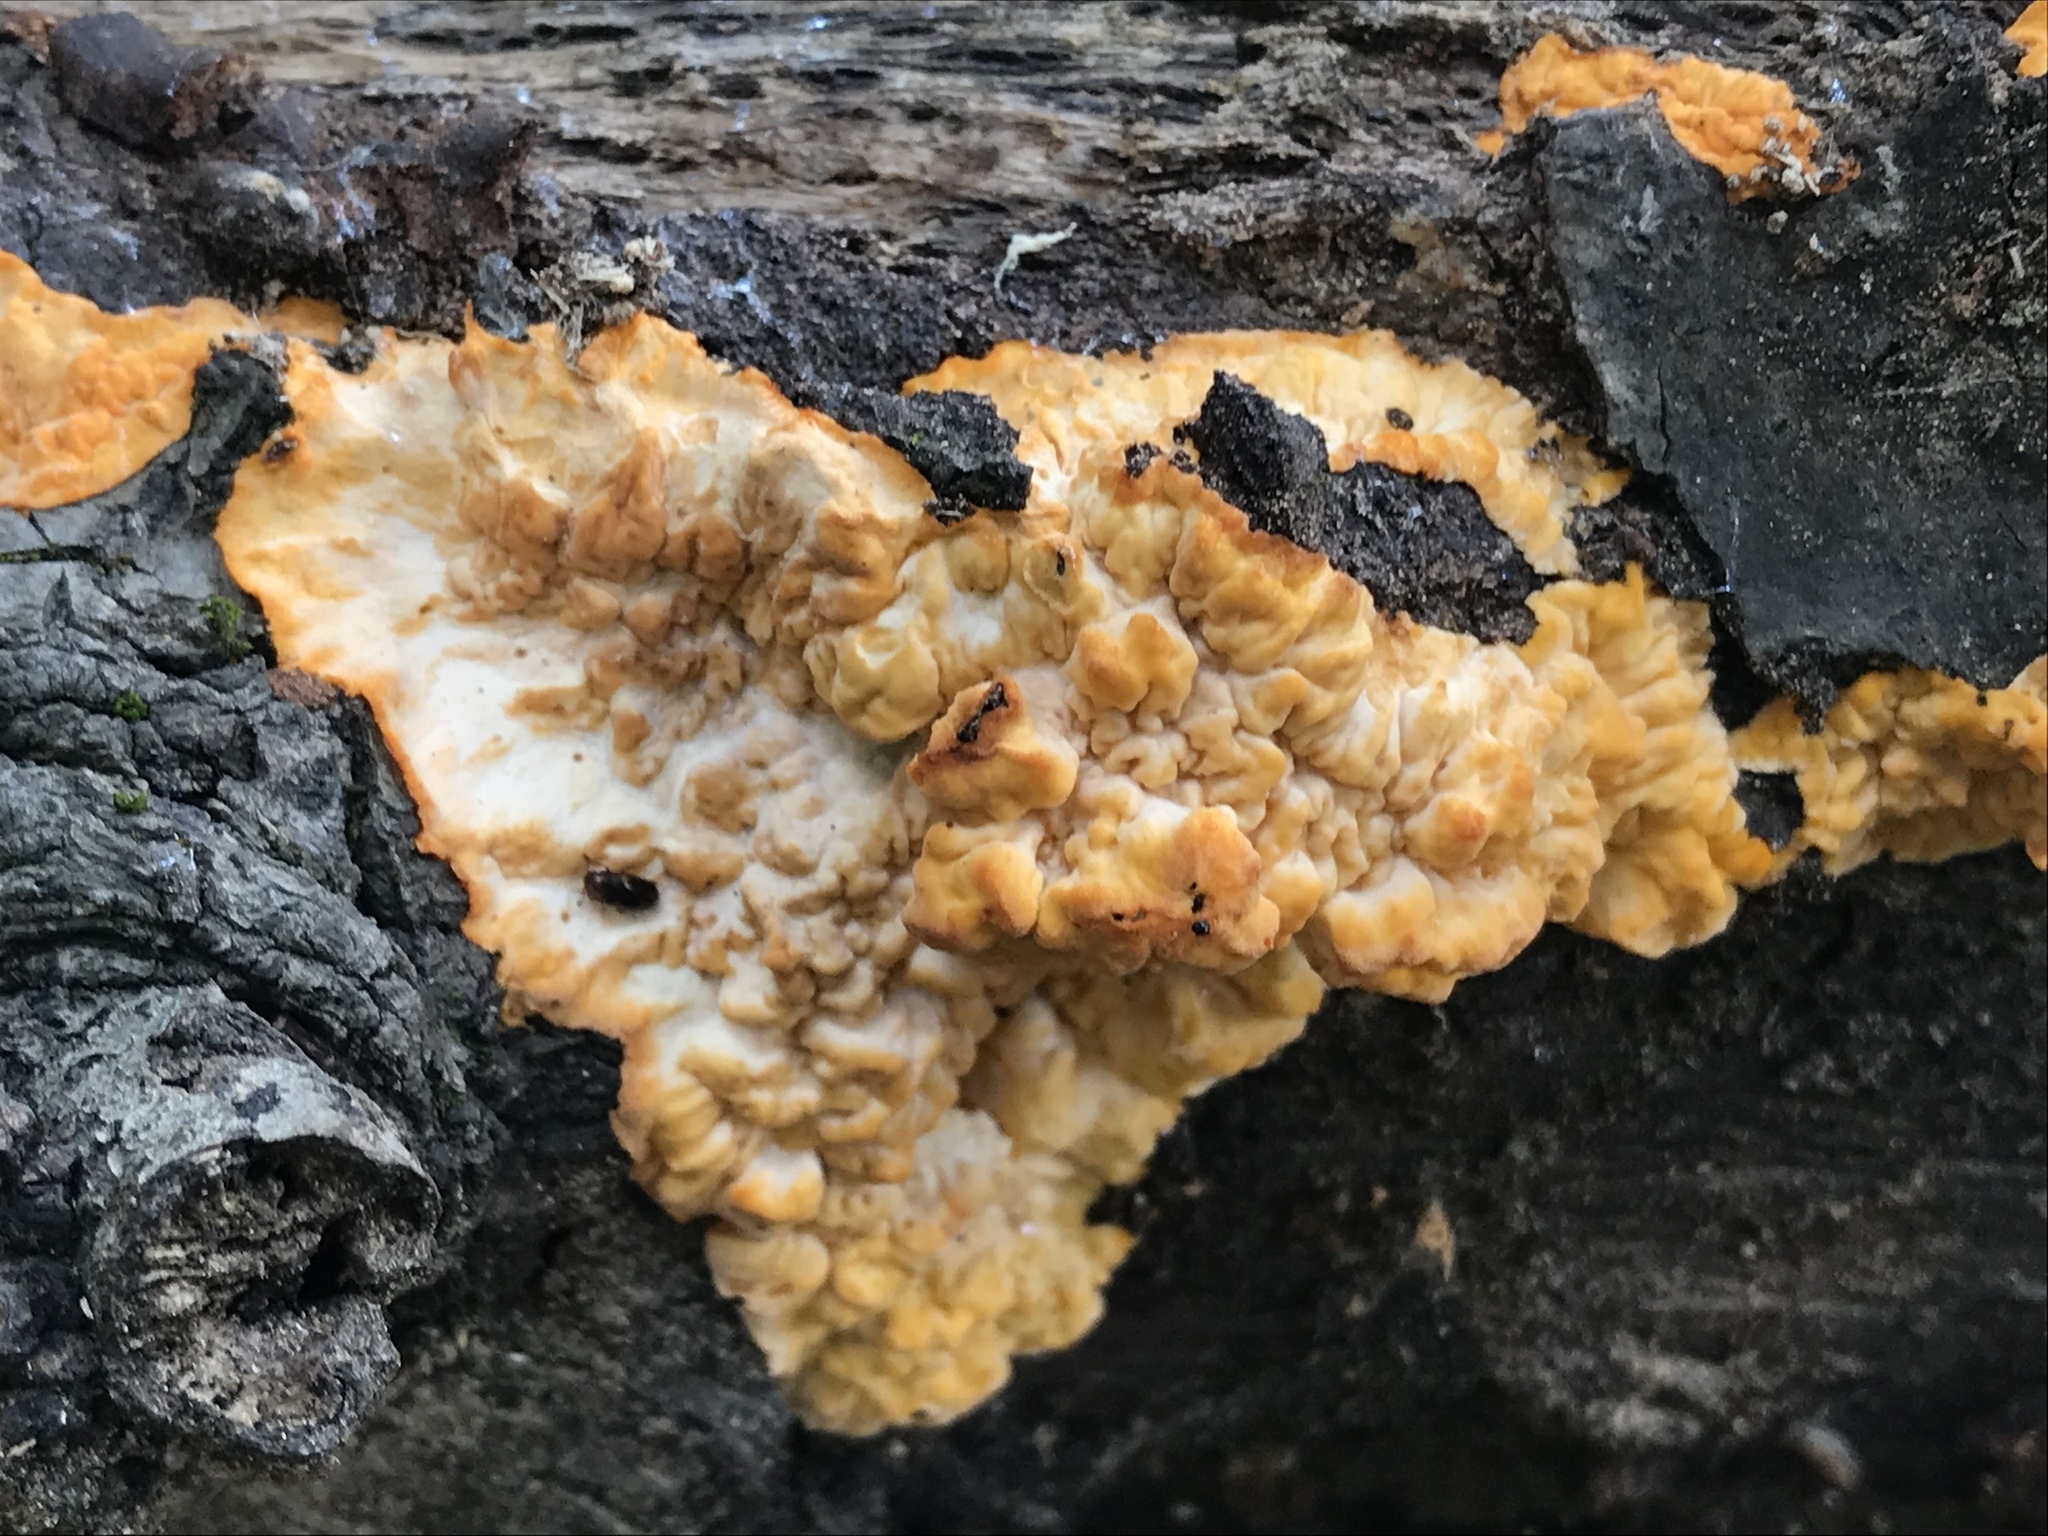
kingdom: Fungi
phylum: Basidiomycota
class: Agaricomycetes
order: Polyporales
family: Meruliaceae
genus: Phlebia
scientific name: Phlebia radiata
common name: Wrinkled crust
